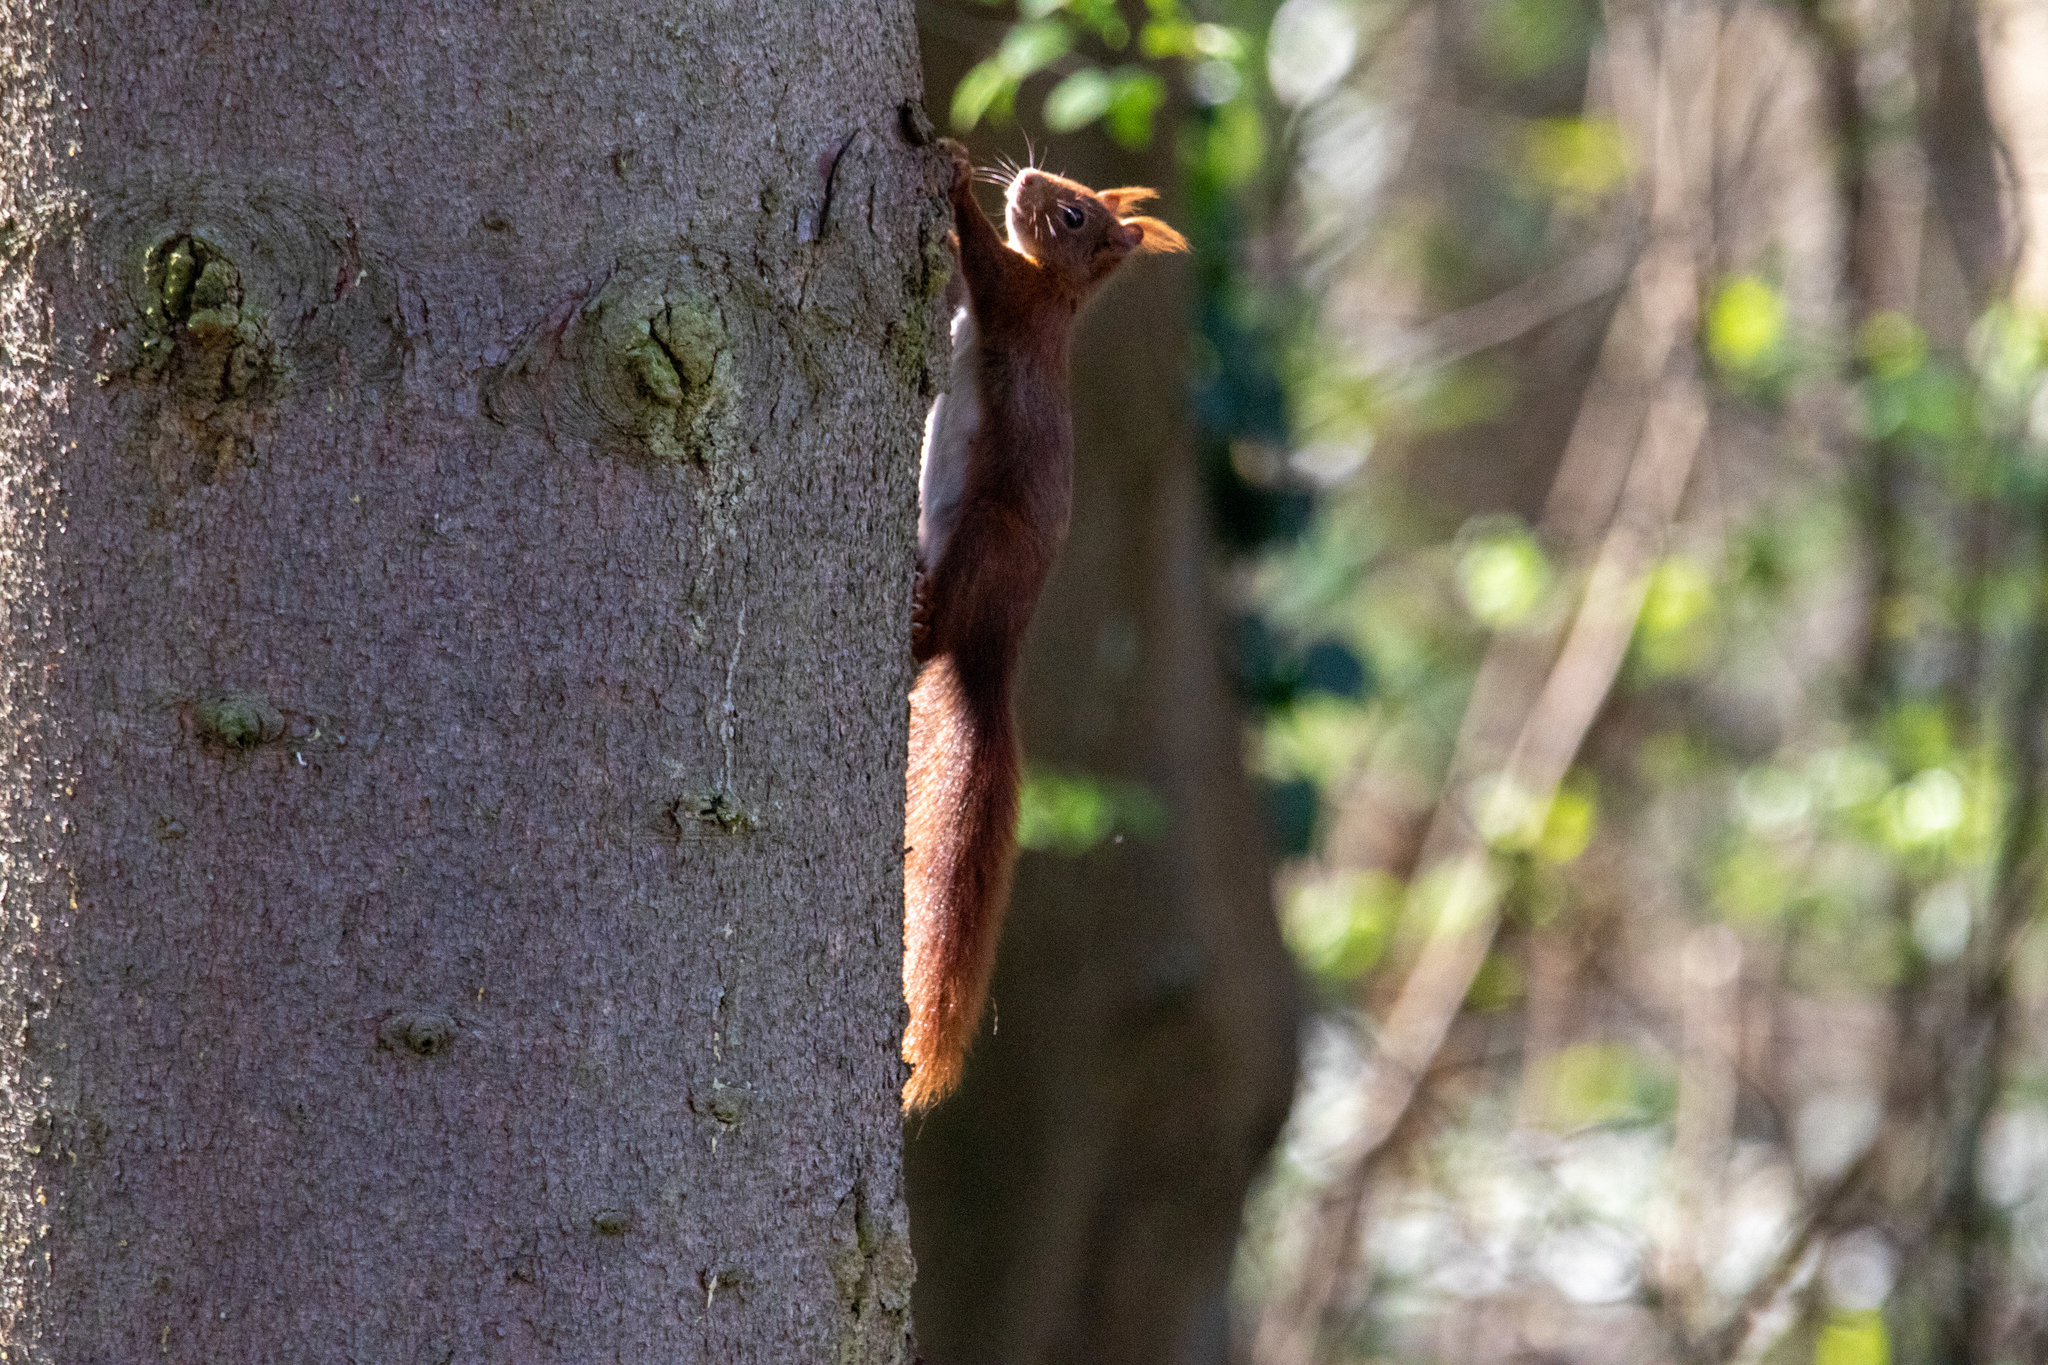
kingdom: Animalia
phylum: Chordata
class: Mammalia
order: Rodentia
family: Sciuridae
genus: Sciurus
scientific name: Sciurus vulgaris
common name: Eurasian red squirrel
